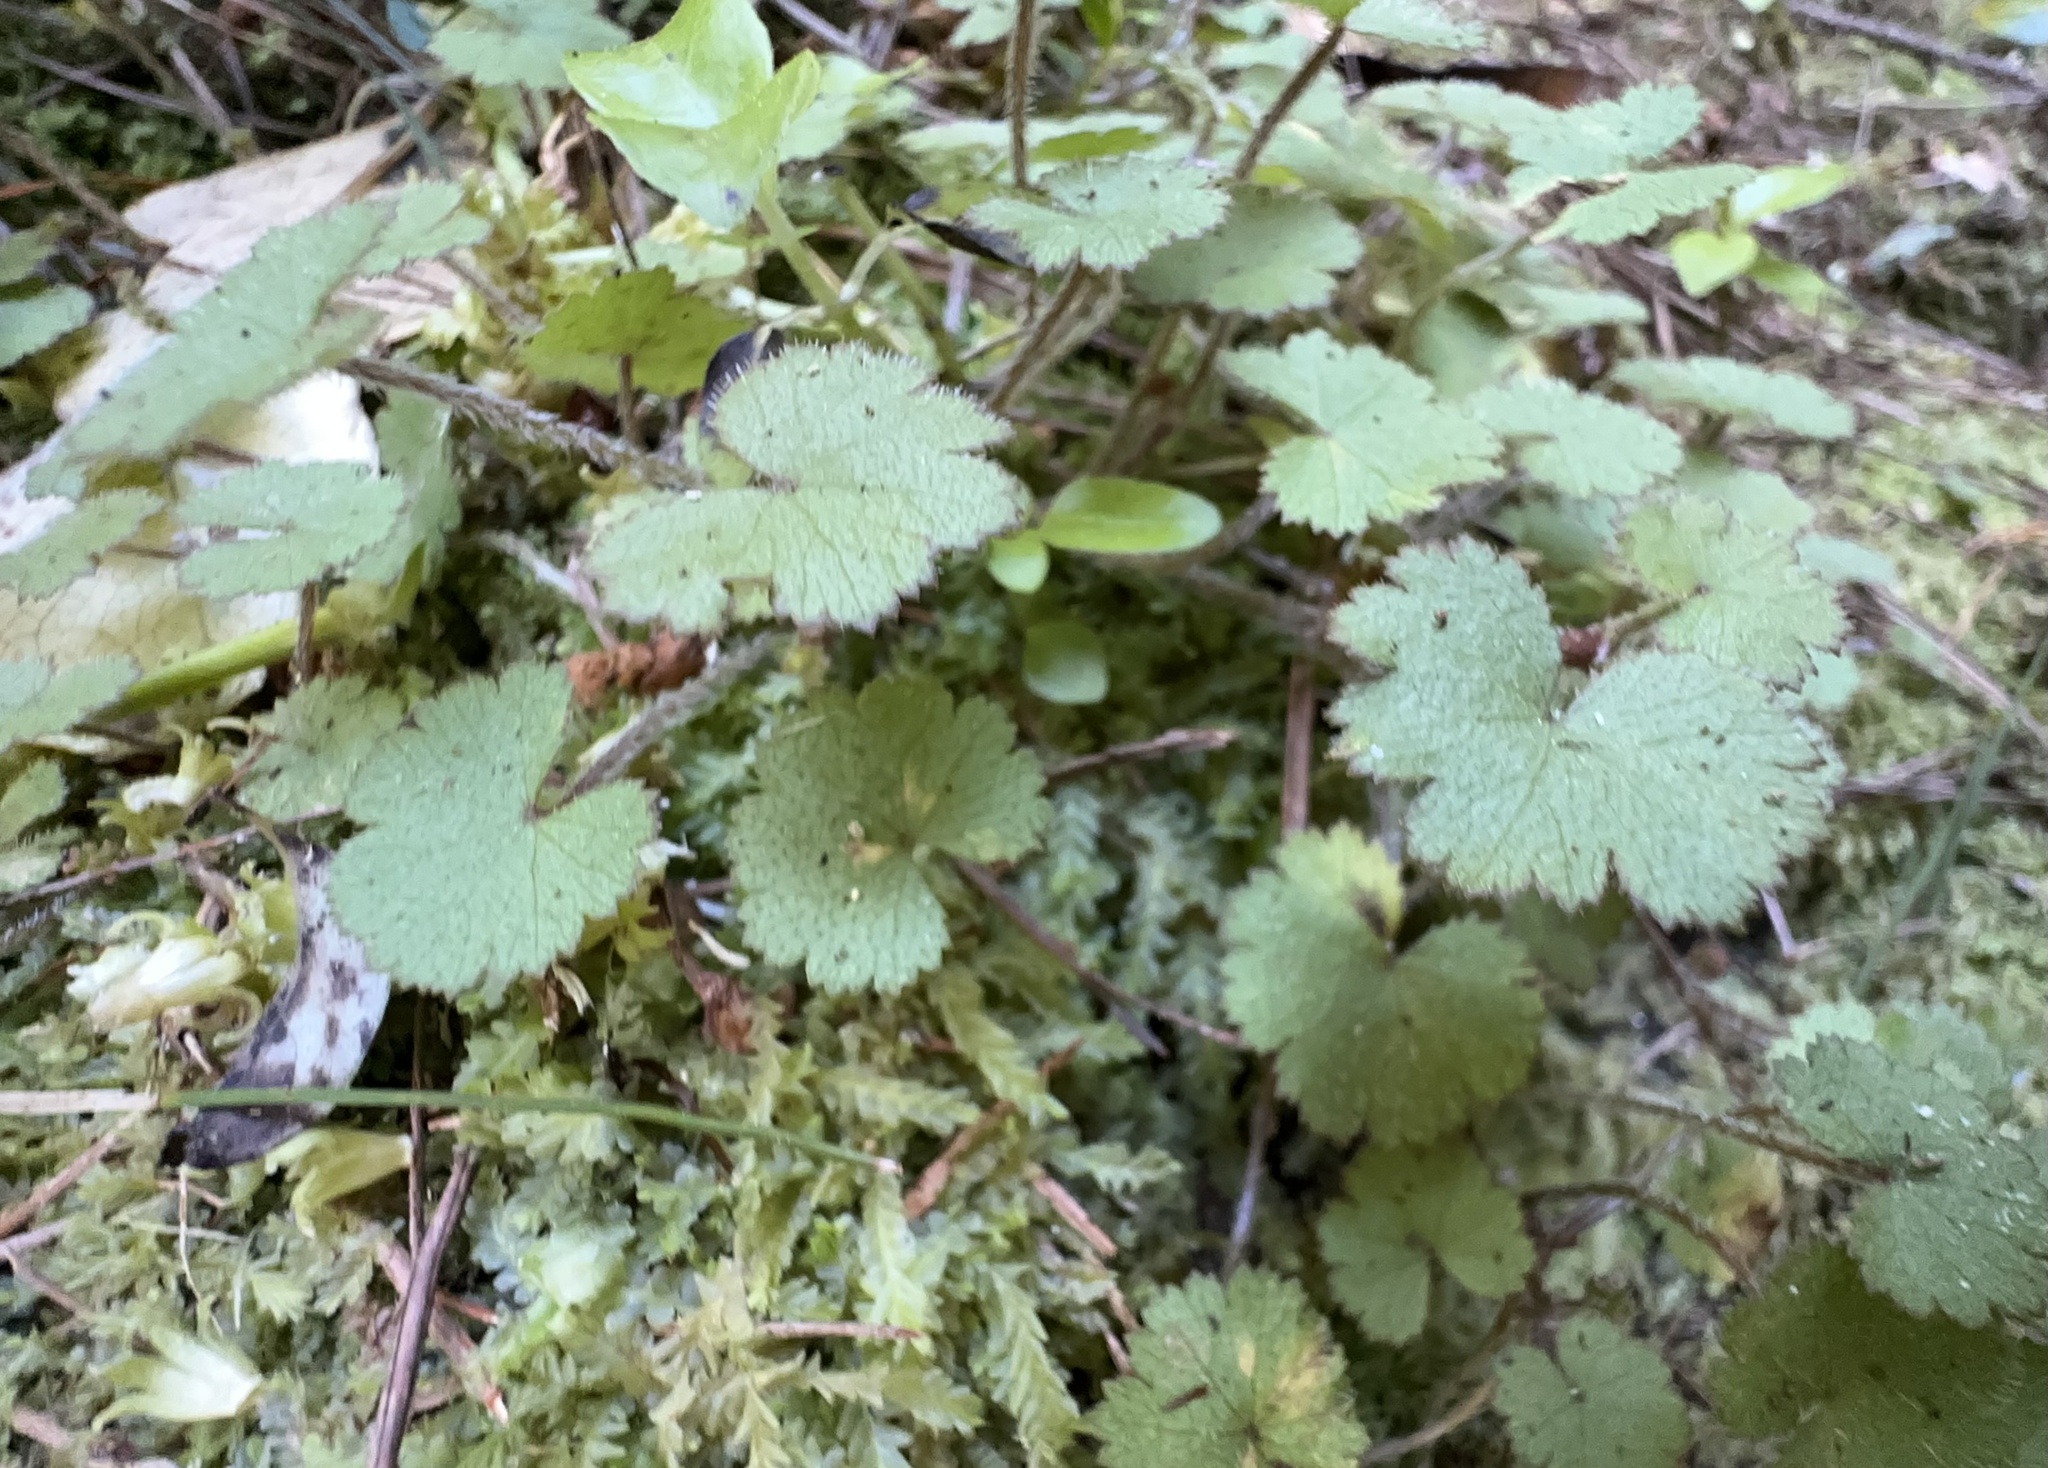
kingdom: Plantae
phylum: Tracheophyta
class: Magnoliopsida
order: Apiales
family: Araliaceae
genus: Hydrocotyle
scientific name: Hydrocotyle moschata
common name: Hairy pennywort
